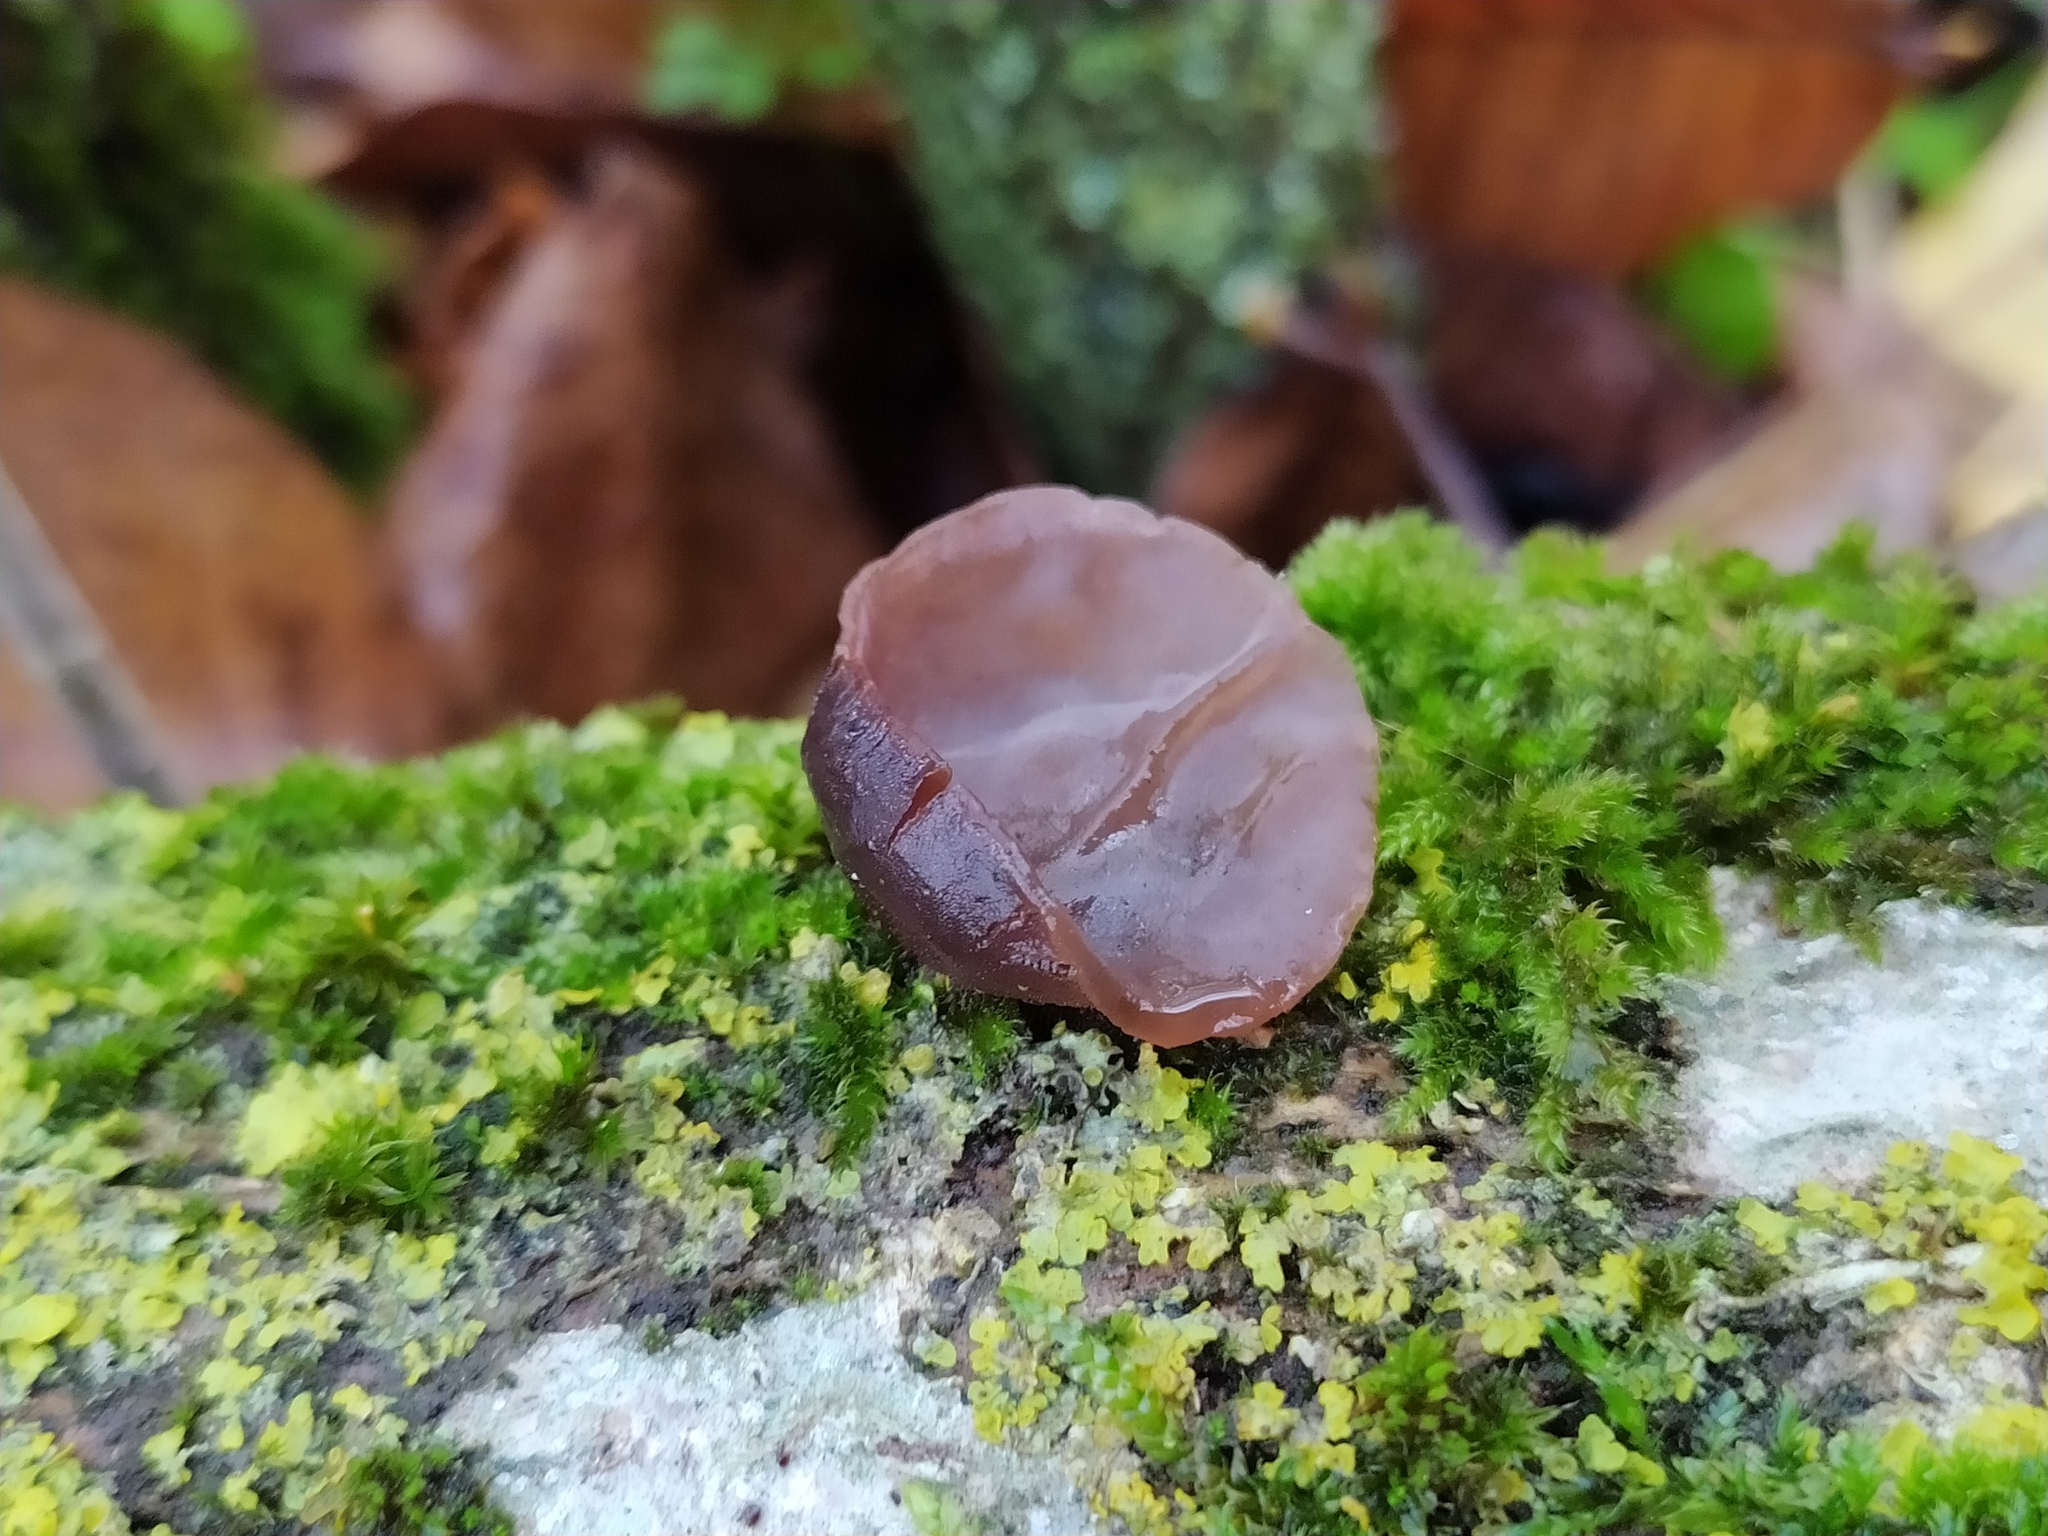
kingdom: Fungi
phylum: Basidiomycota
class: Agaricomycetes
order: Auriculariales
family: Auriculariaceae
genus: Auricularia
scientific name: Auricularia auricula-judae
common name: Jelly ear
